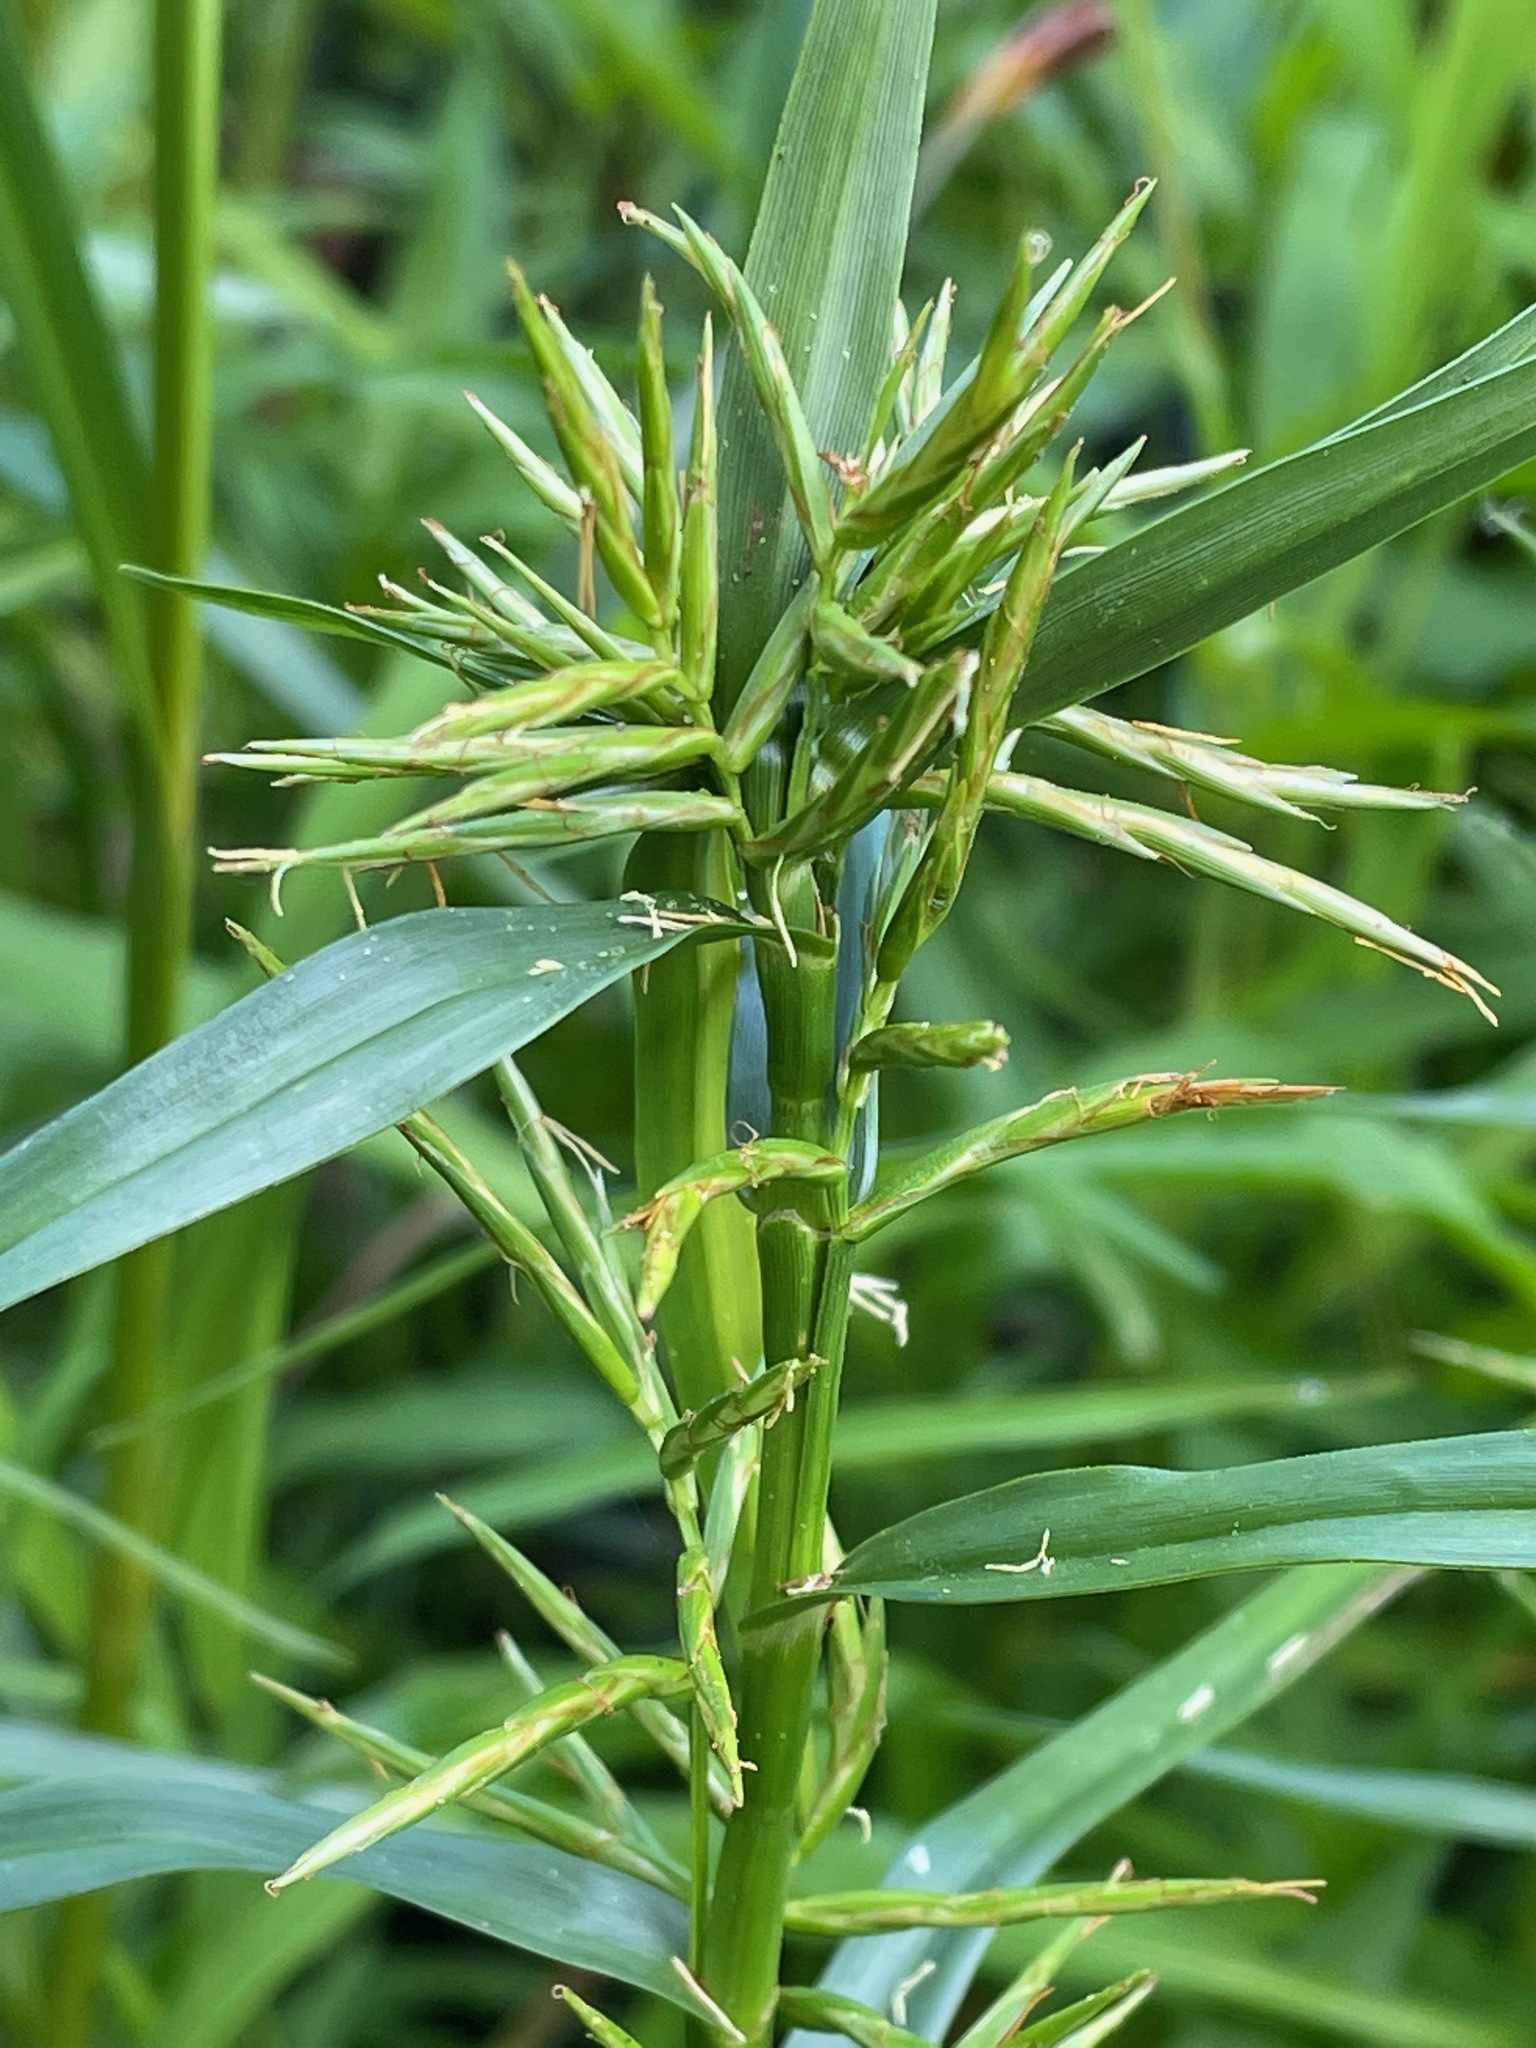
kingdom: Plantae
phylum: Tracheophyta
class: Liliopsida
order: Poales
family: Cyperaceae
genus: Dulichium
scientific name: Dulichium arundinaceum
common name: Three-way sedge
